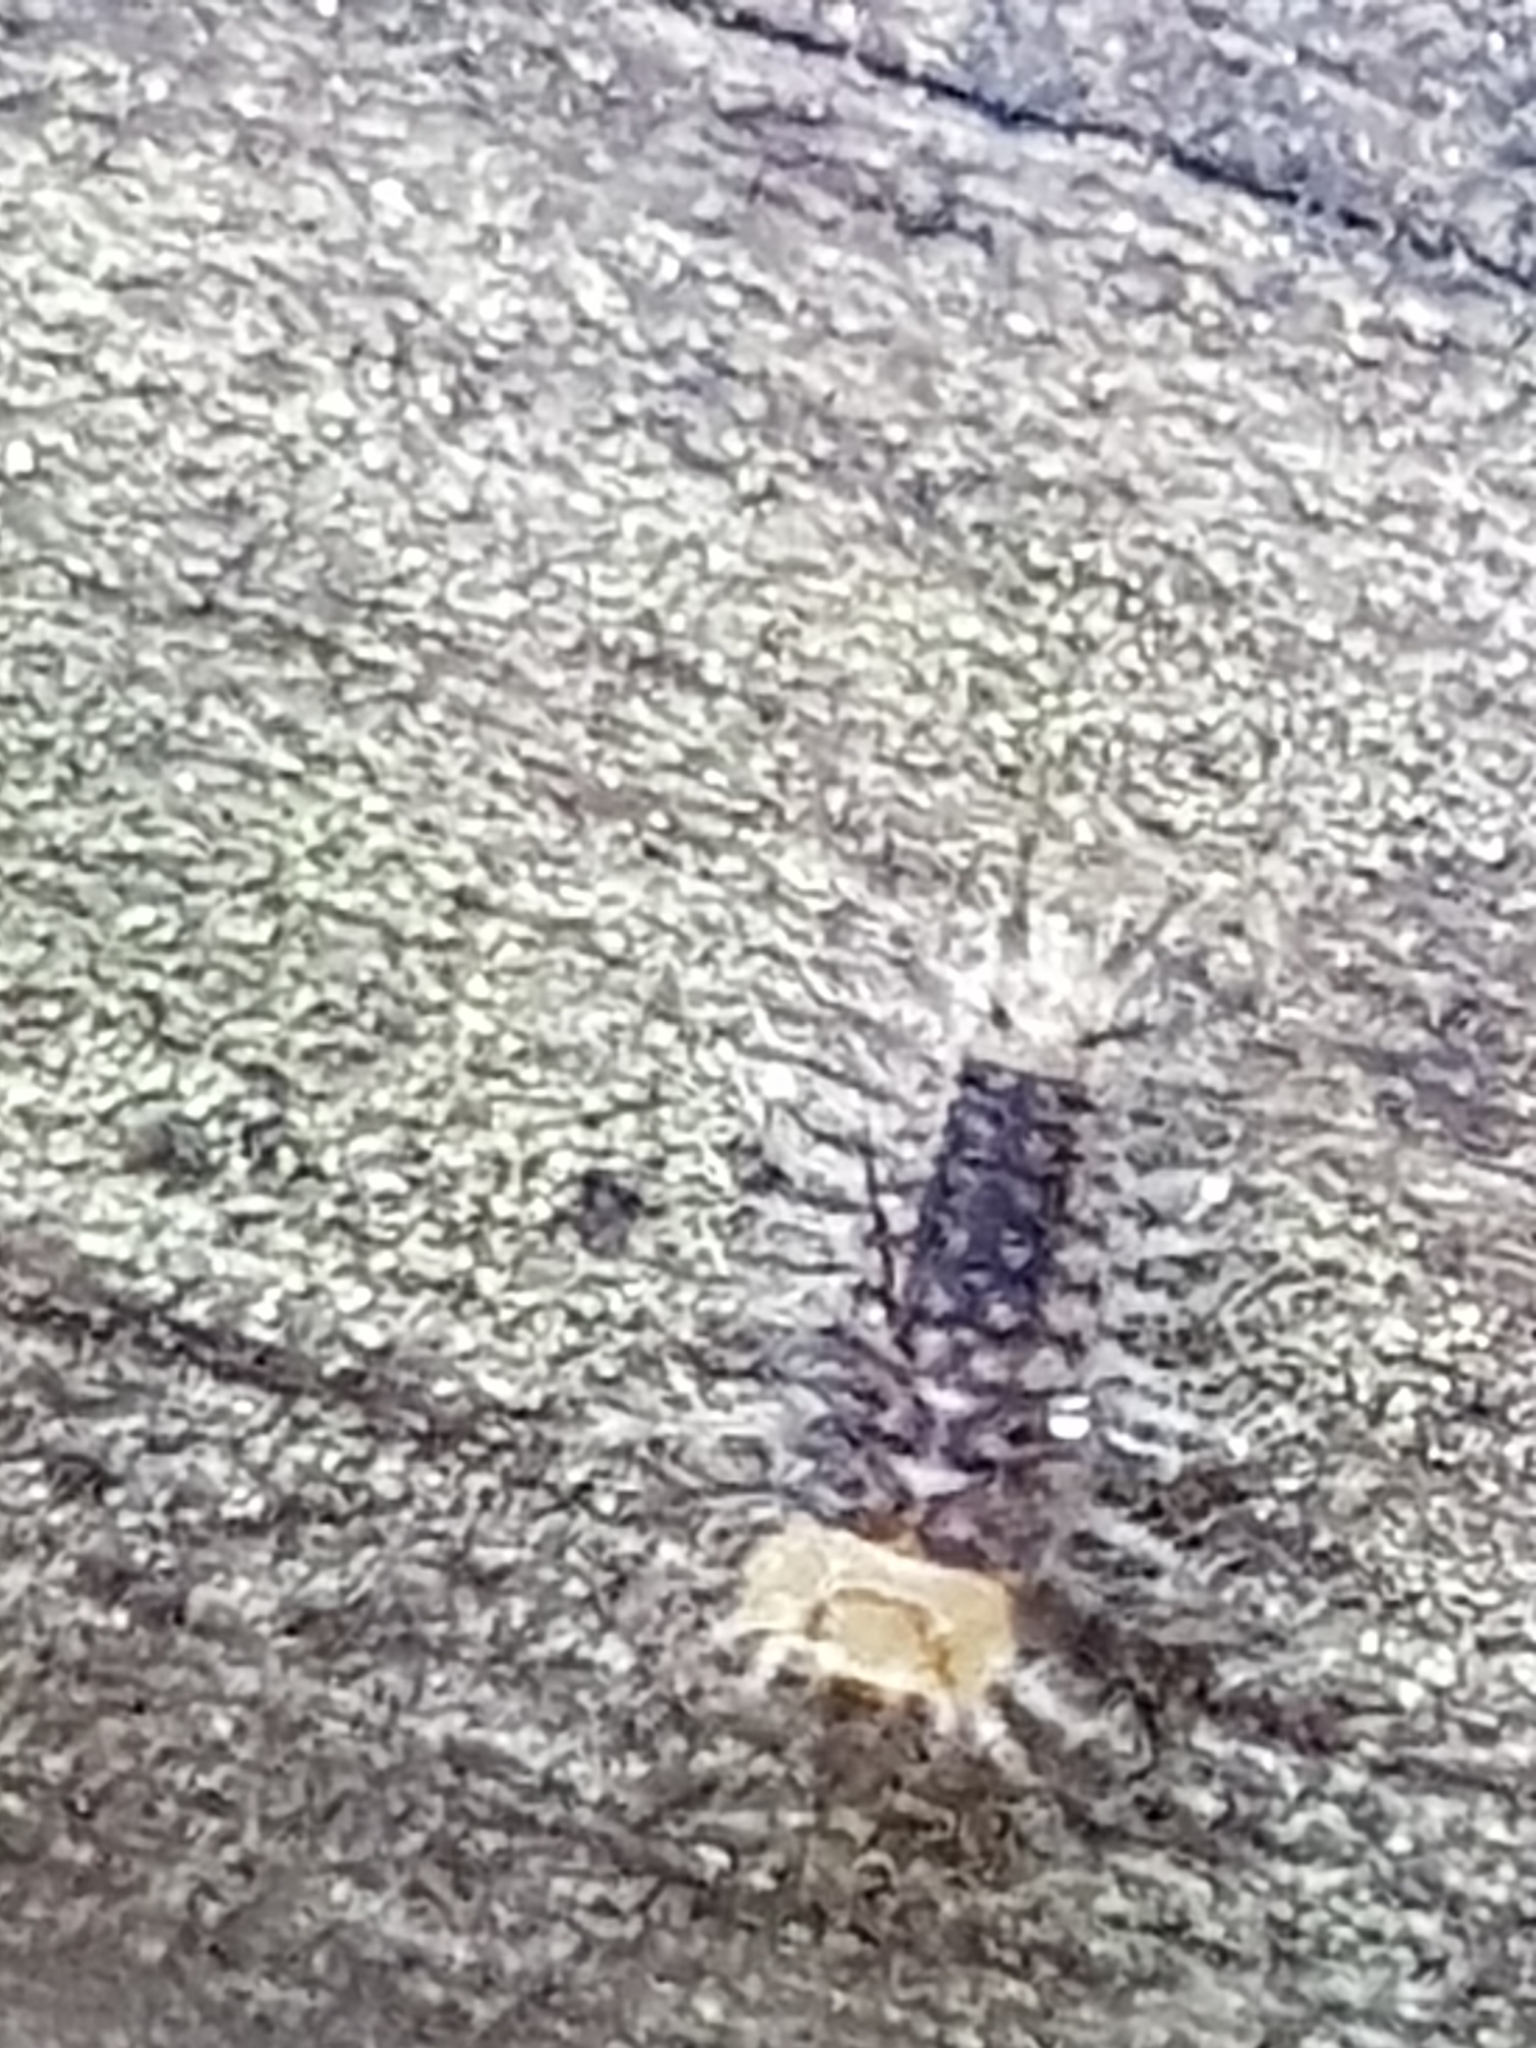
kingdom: Animalia
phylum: Arthropoda
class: Insecta
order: Coleoptera
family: Coccinellidae
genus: Halmus
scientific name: Halmus chalybeus
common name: Steel blue ladybird beetle
